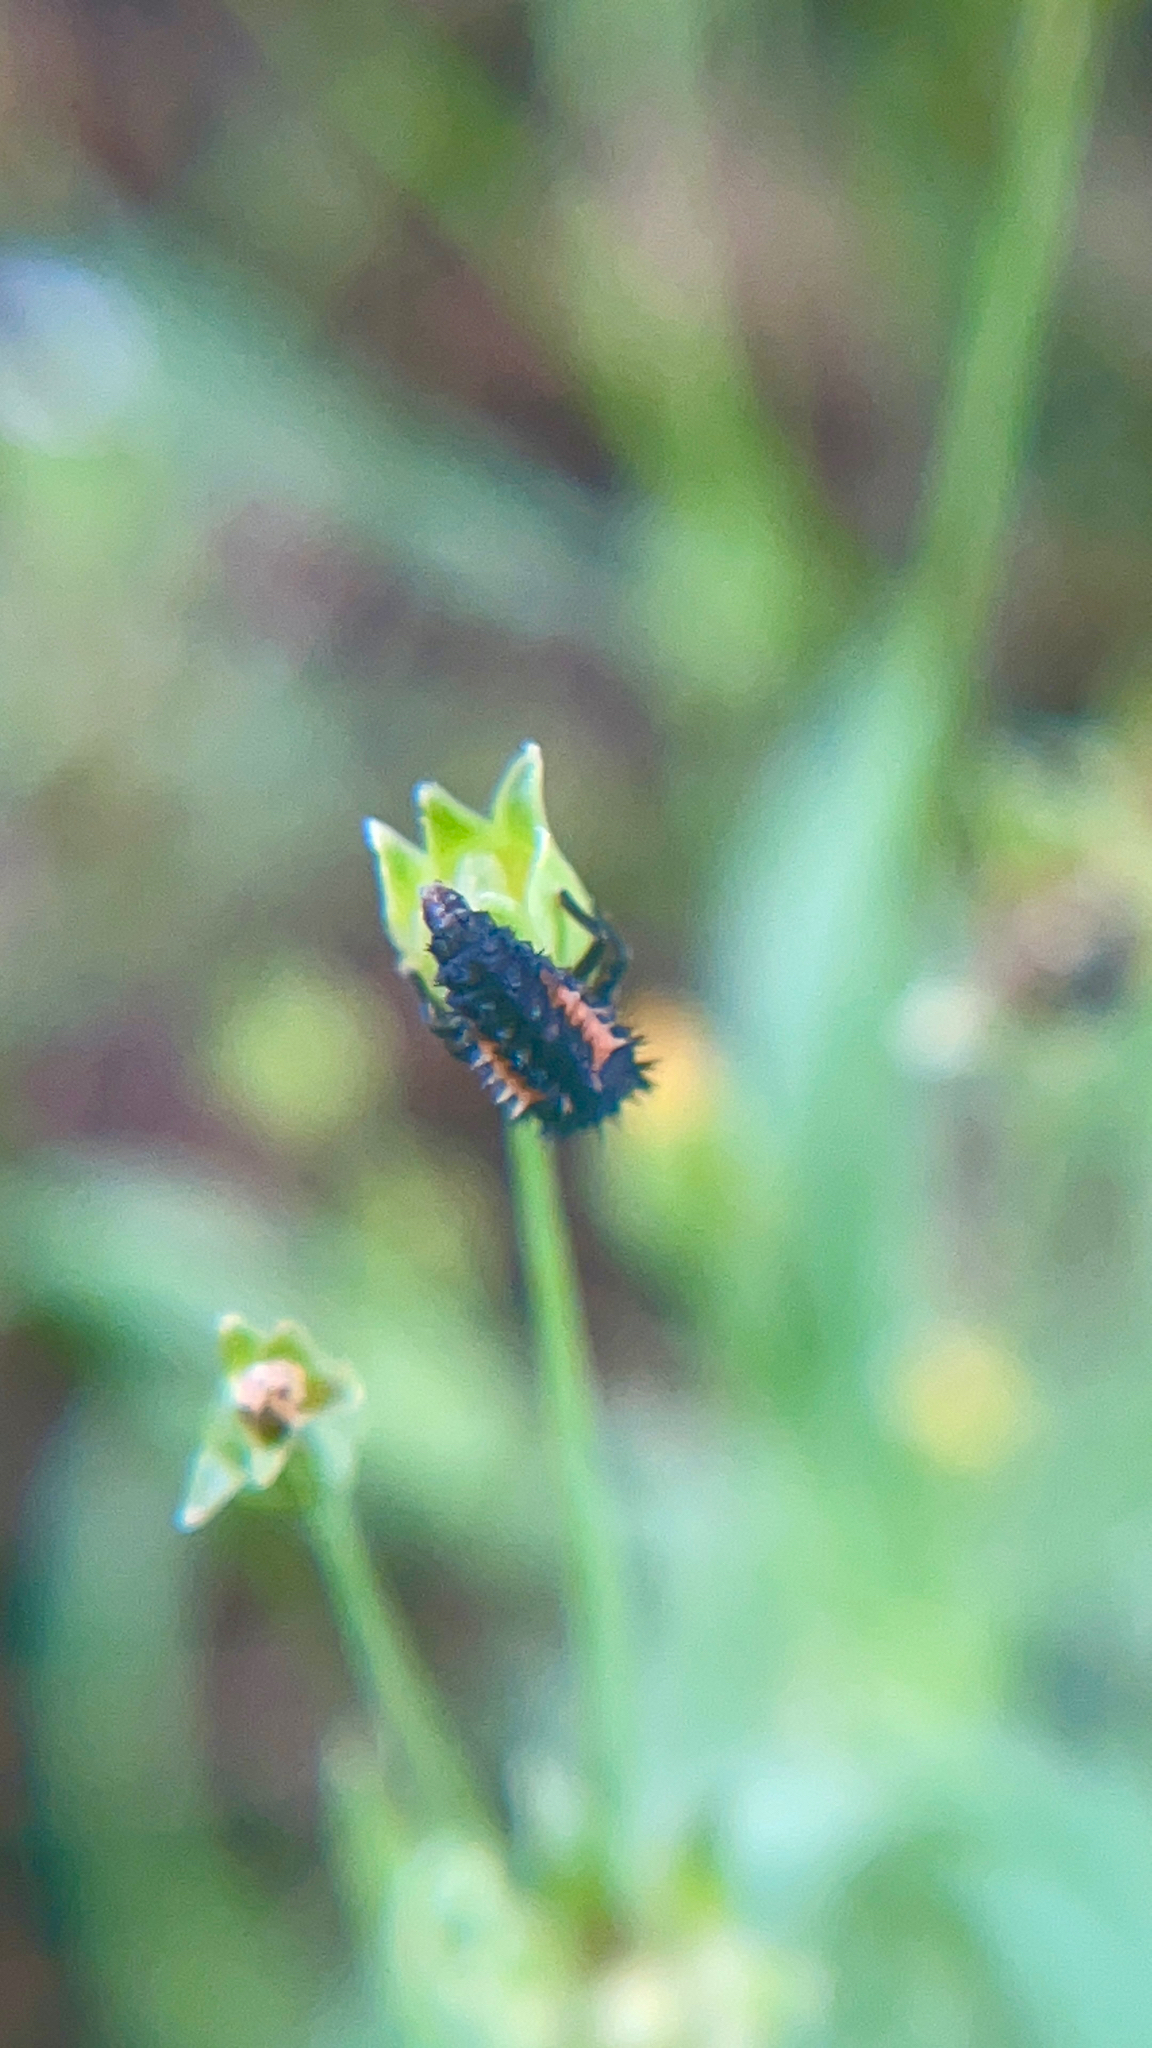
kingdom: Animalia
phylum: Arthropoda
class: Insecta
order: Coleoptera
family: Coccinellidae
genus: Harmonia
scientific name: Harmonia axyridis
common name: Harlequin ladybird
